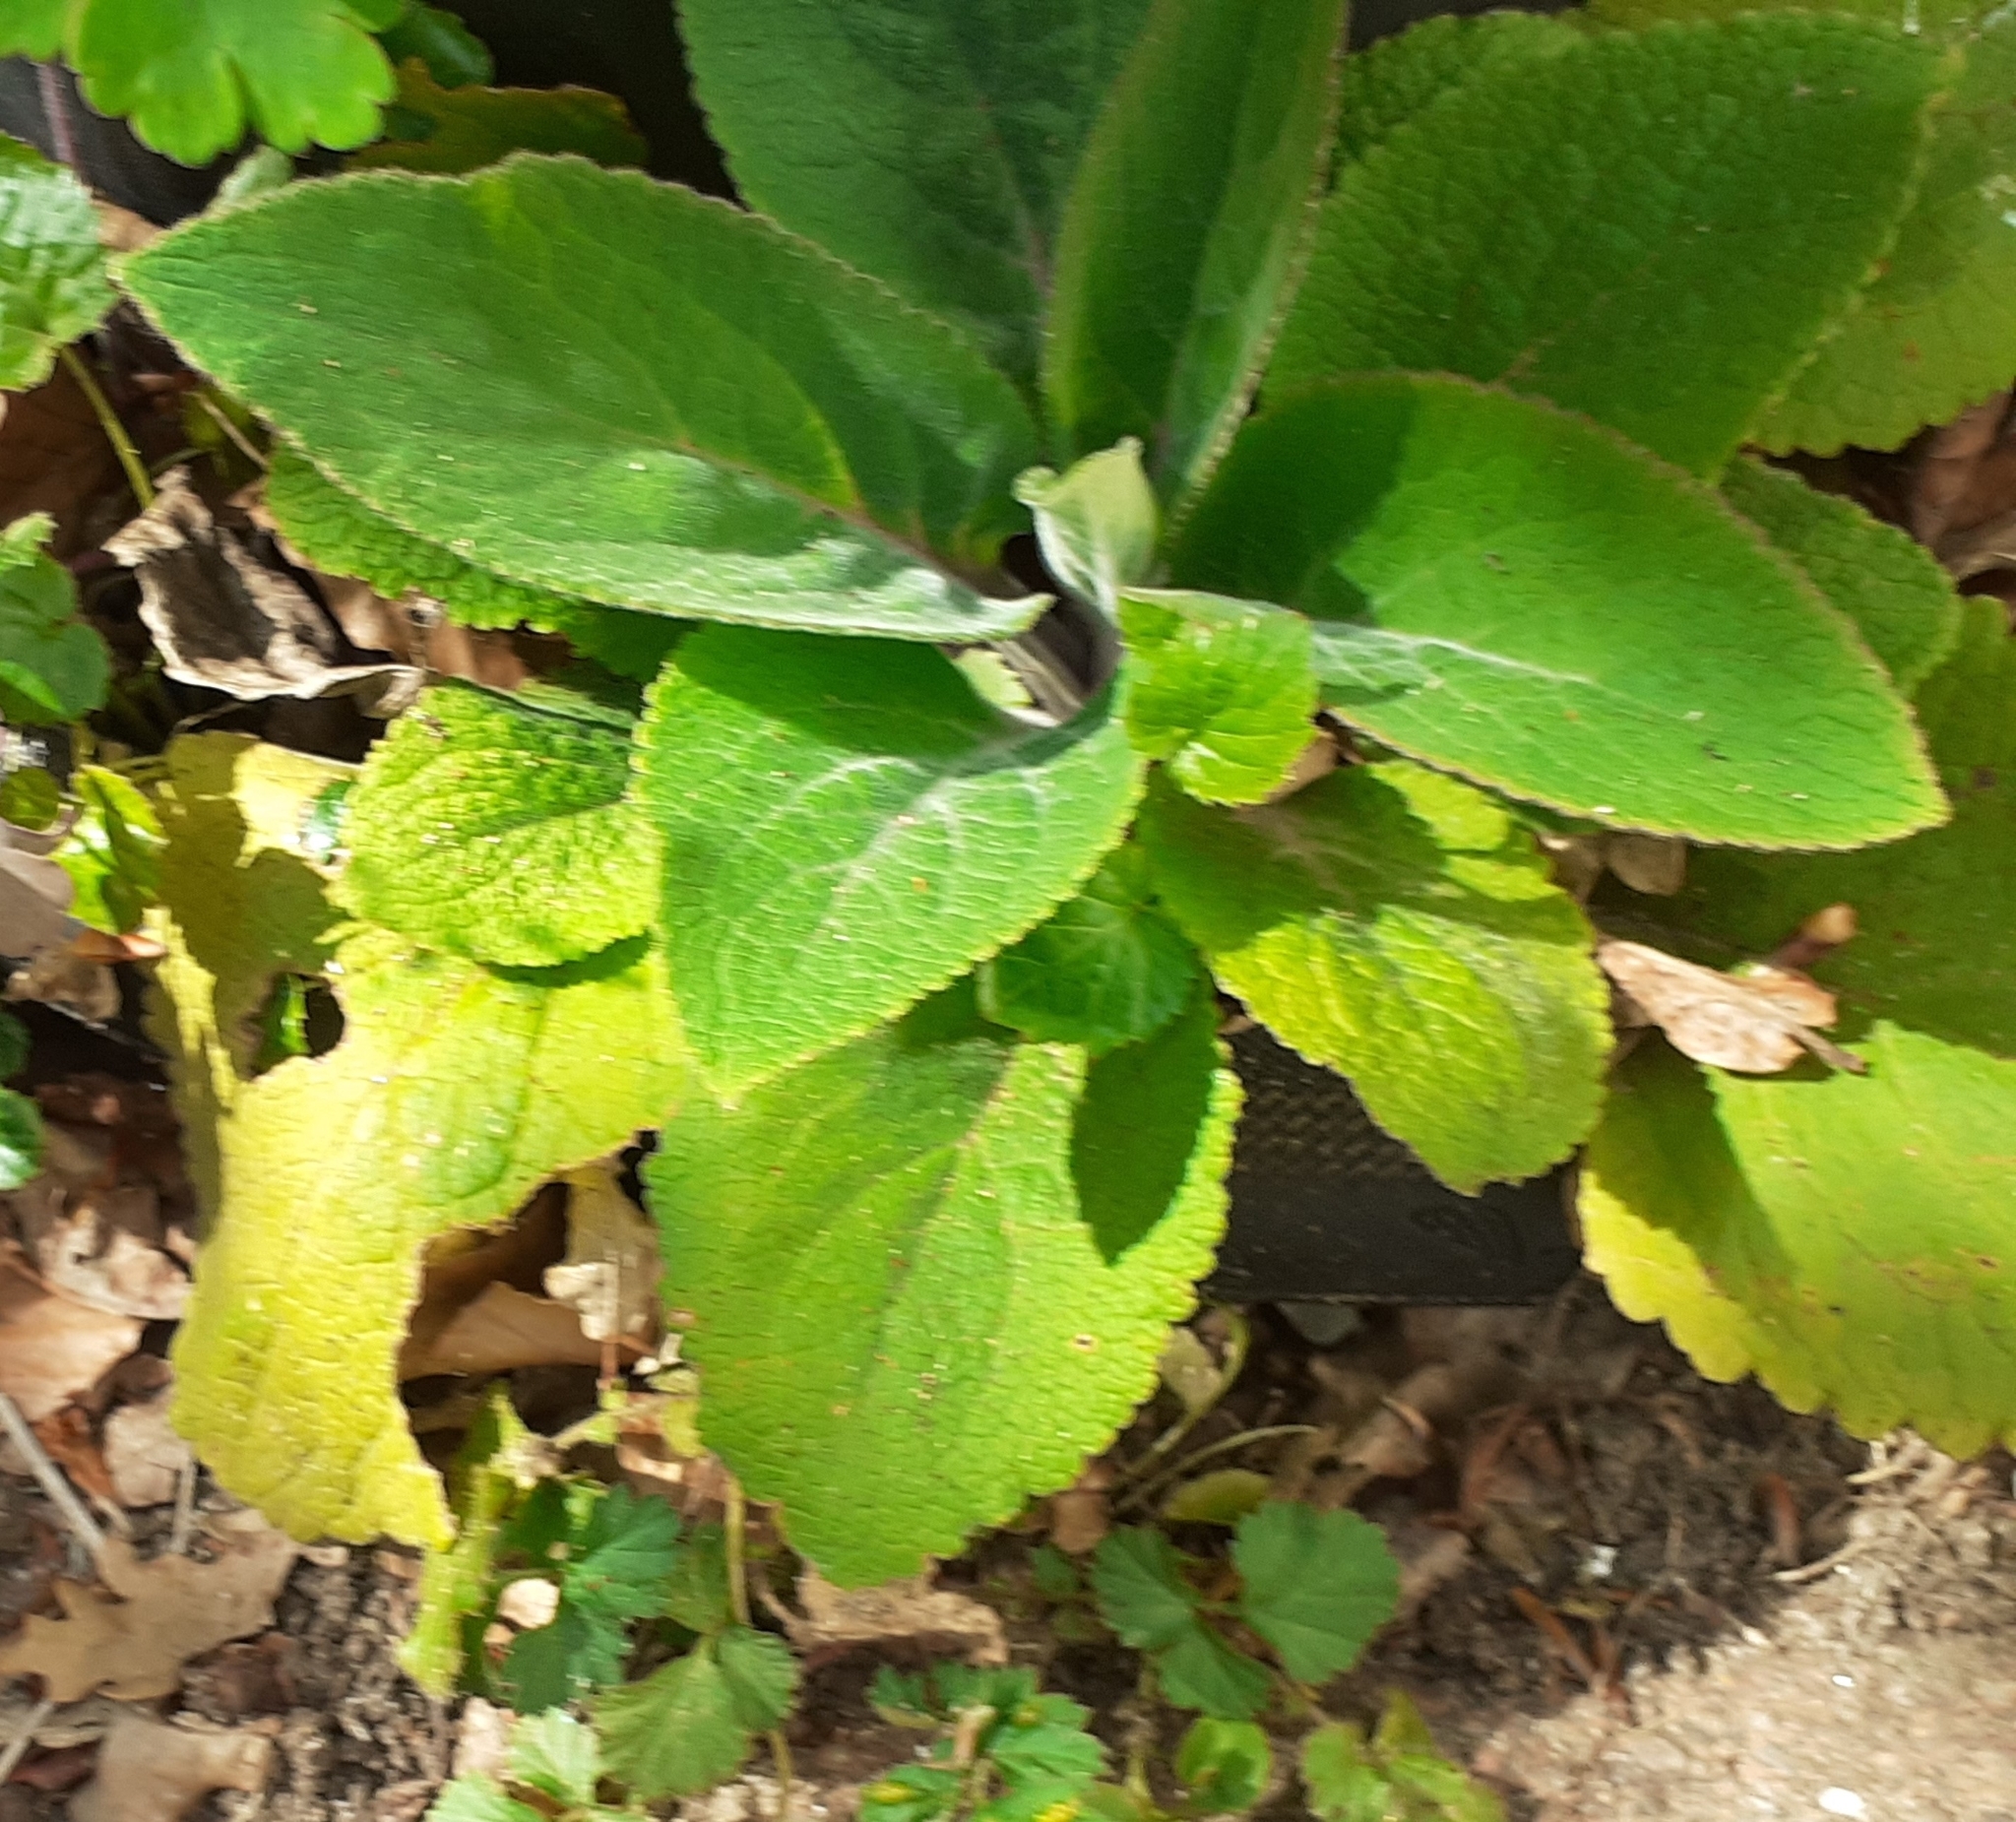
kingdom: Plantae
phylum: Tracheophyta
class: Magnoliopsida
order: Lamiales
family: Plantaginaceae
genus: Digitalis
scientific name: Digitalis purpurea
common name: Foxglove
